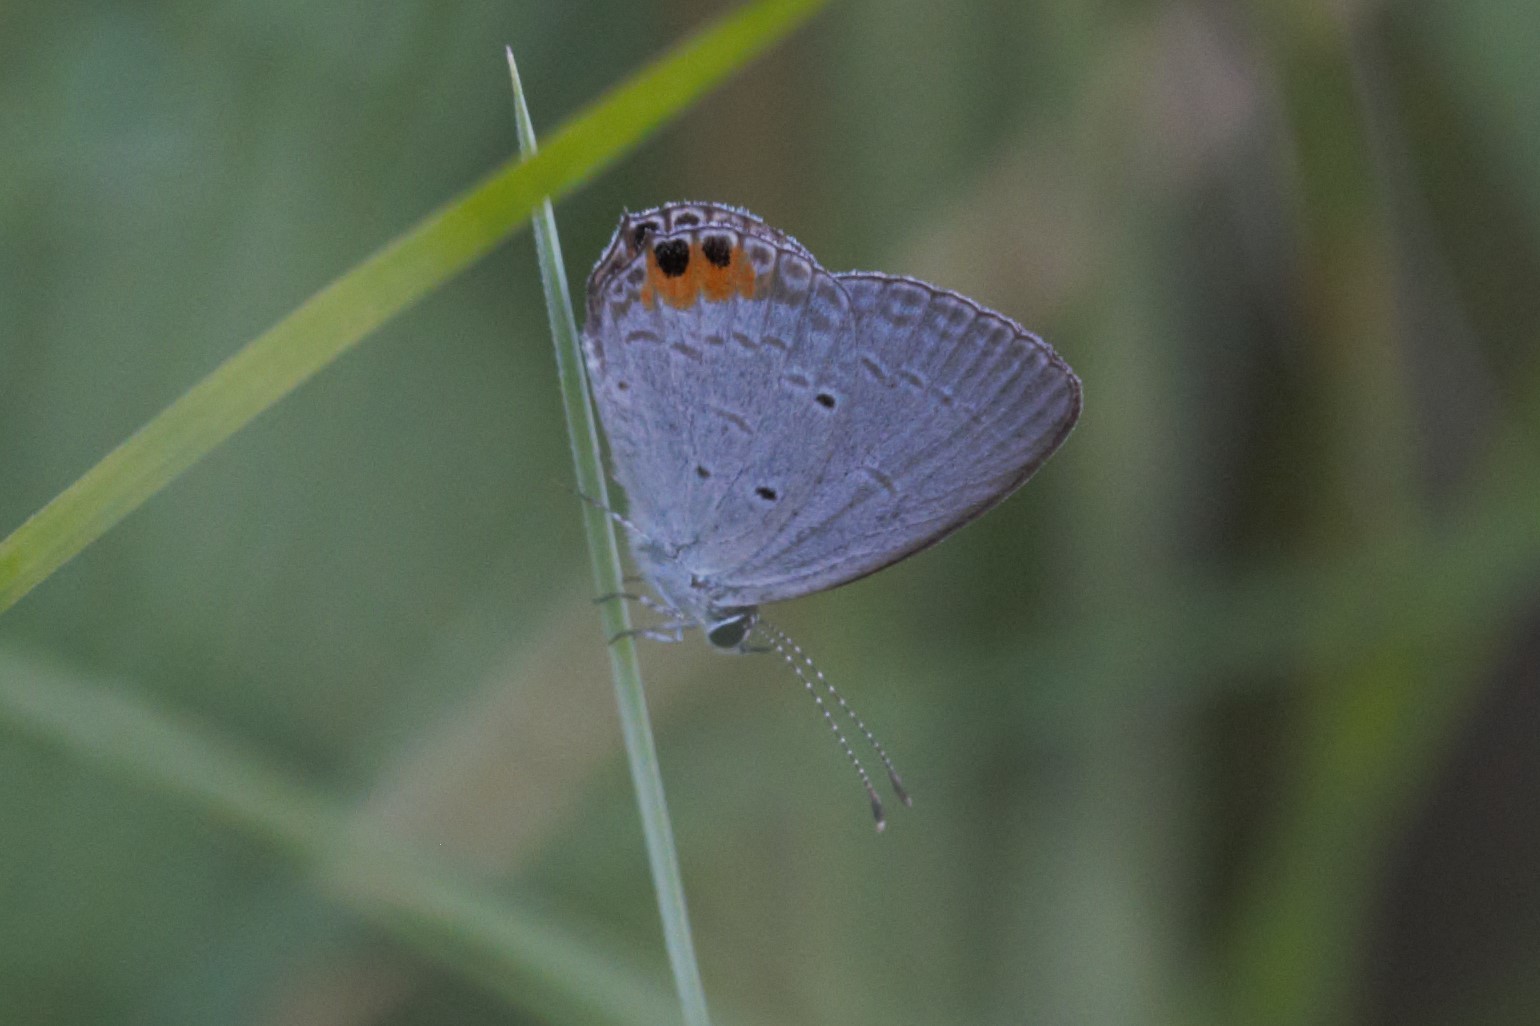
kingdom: Animalia
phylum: Arthropoda
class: Insecta
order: Lepidoptera
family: Lycaenidae
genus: Everes
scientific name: Everes lacturnus
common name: Orange-tipped pea-blue
